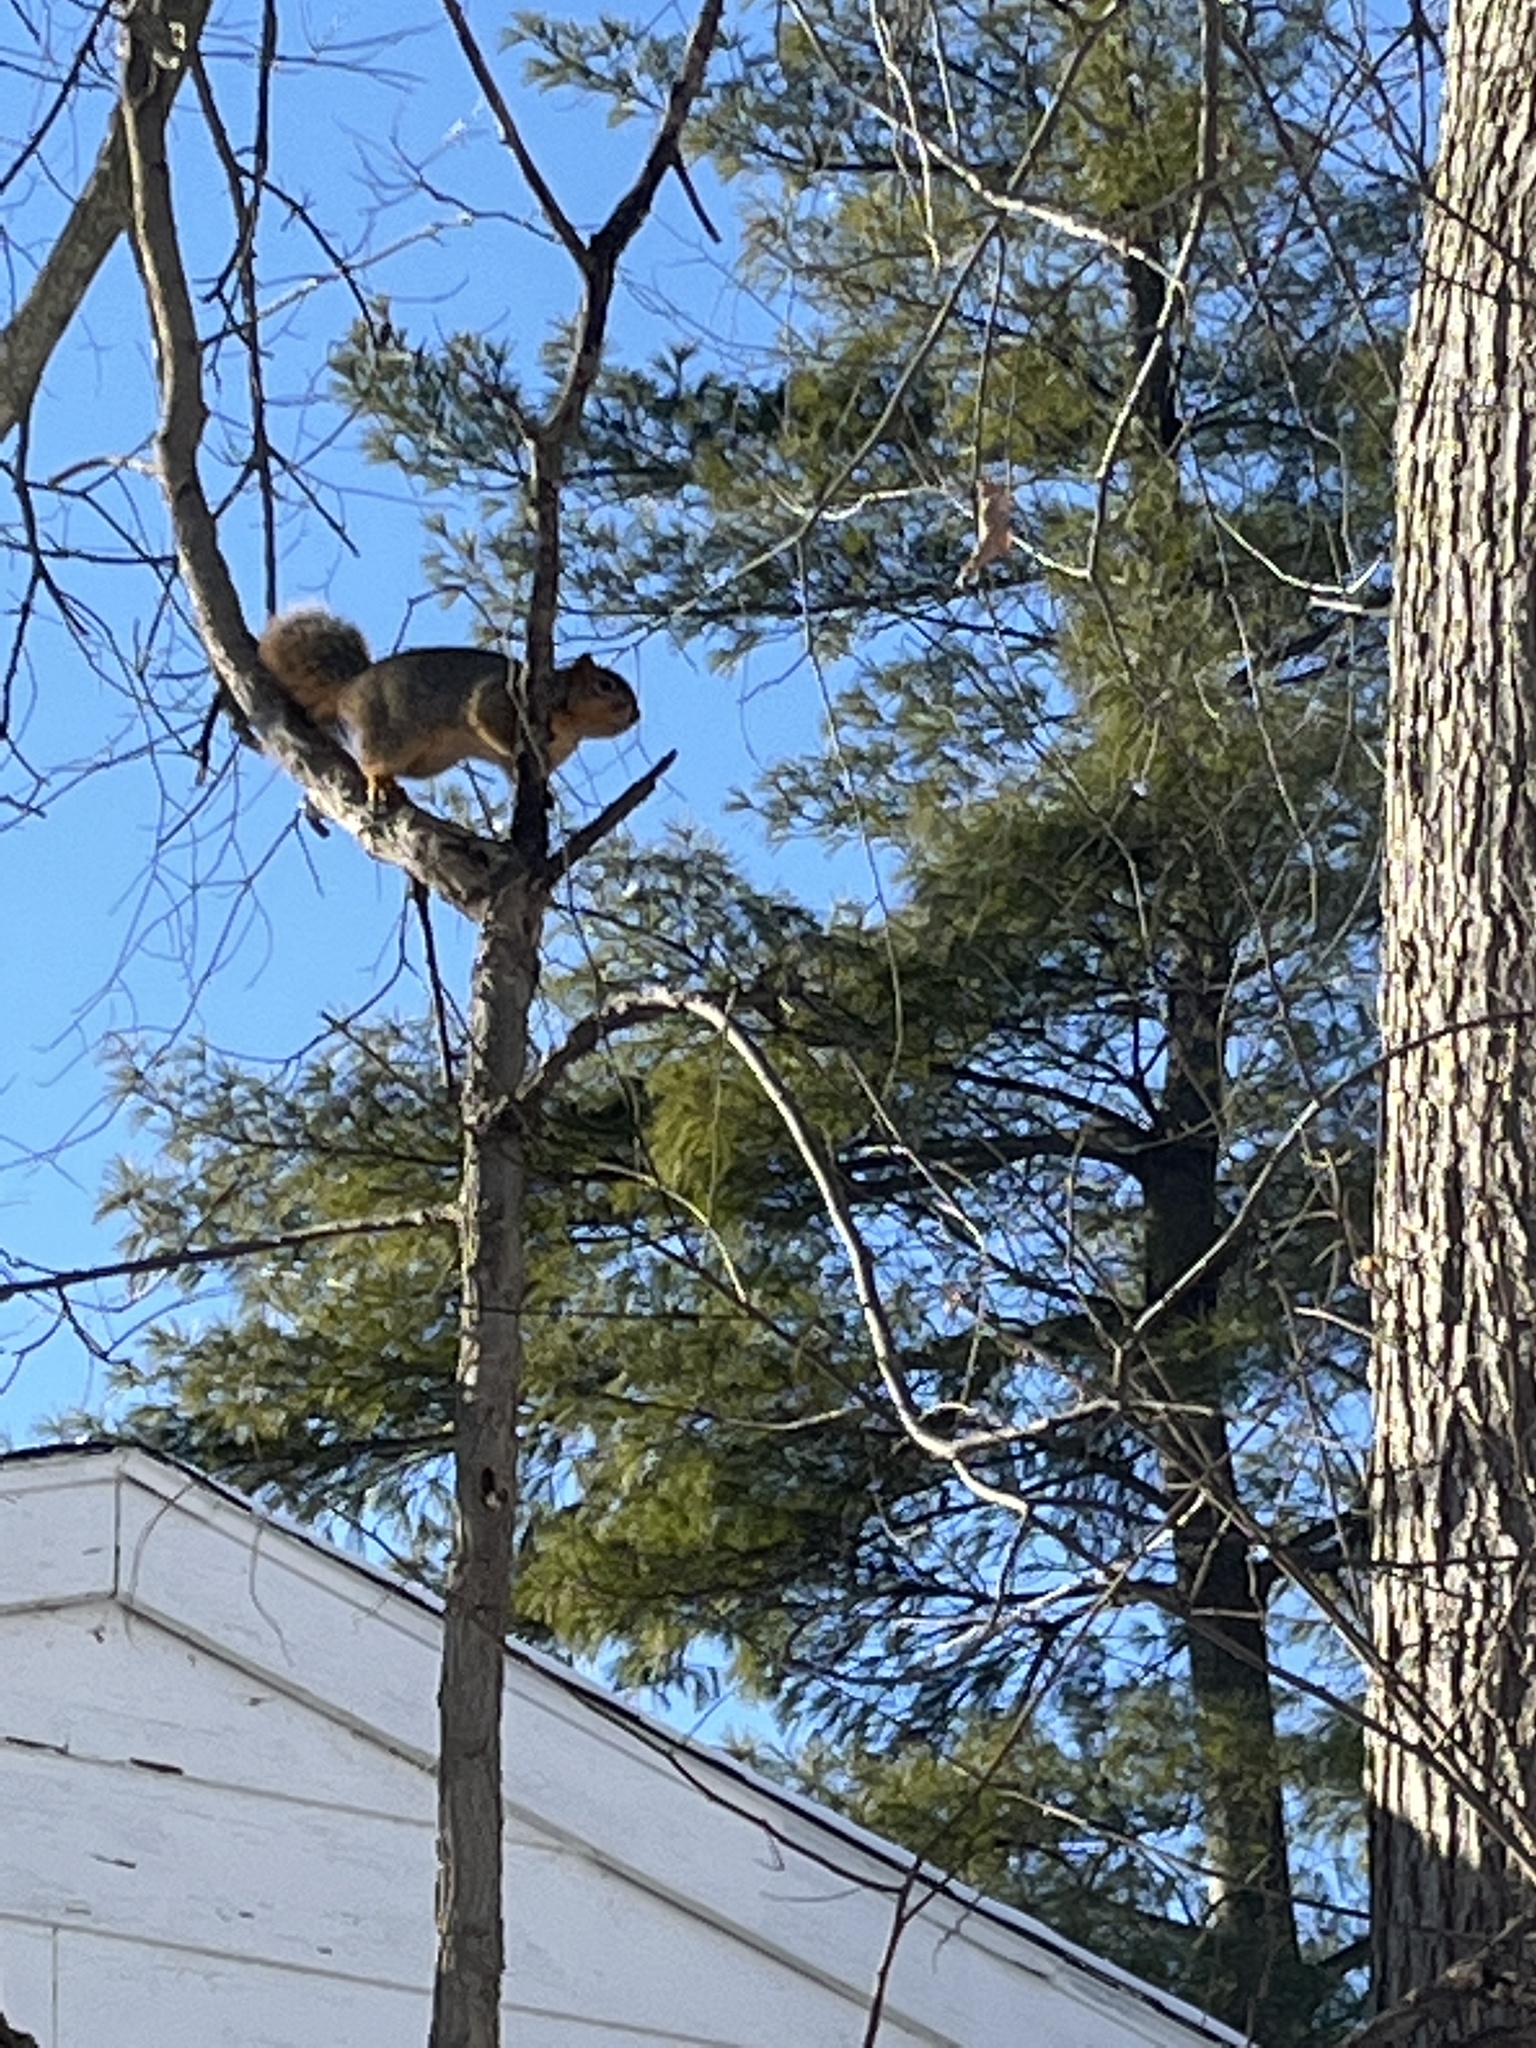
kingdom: Animalia
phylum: Chordata
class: Mammalia
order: Rodentia
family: Sciuridae
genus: Sciurus
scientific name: Sciurus niger
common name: Fox squirrel
